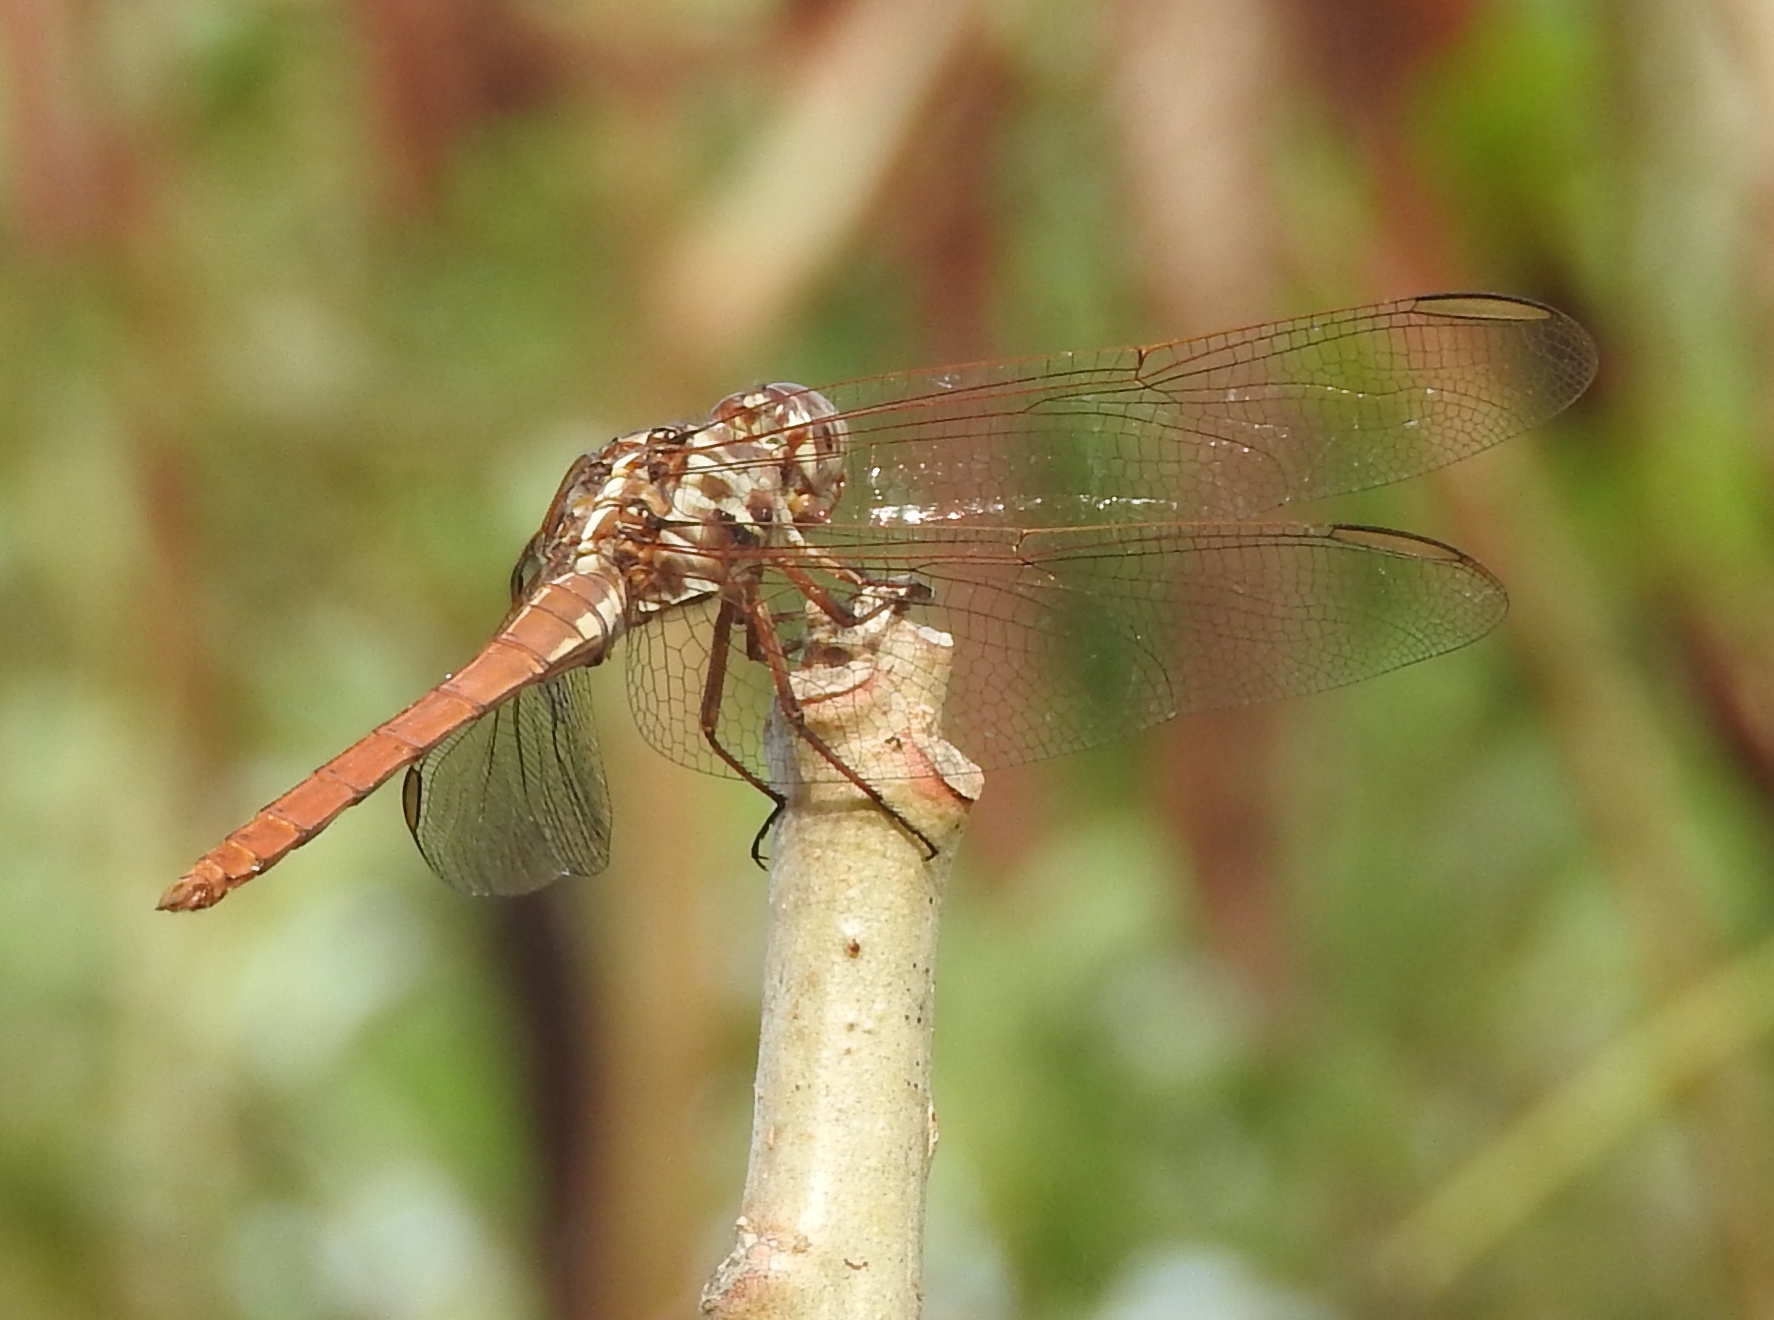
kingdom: Animalia
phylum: Arthropoda
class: Insecta
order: Odonata
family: Libellulidae
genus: Orthemis
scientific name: Orthemis ferruginea
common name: Roseate skimmer
